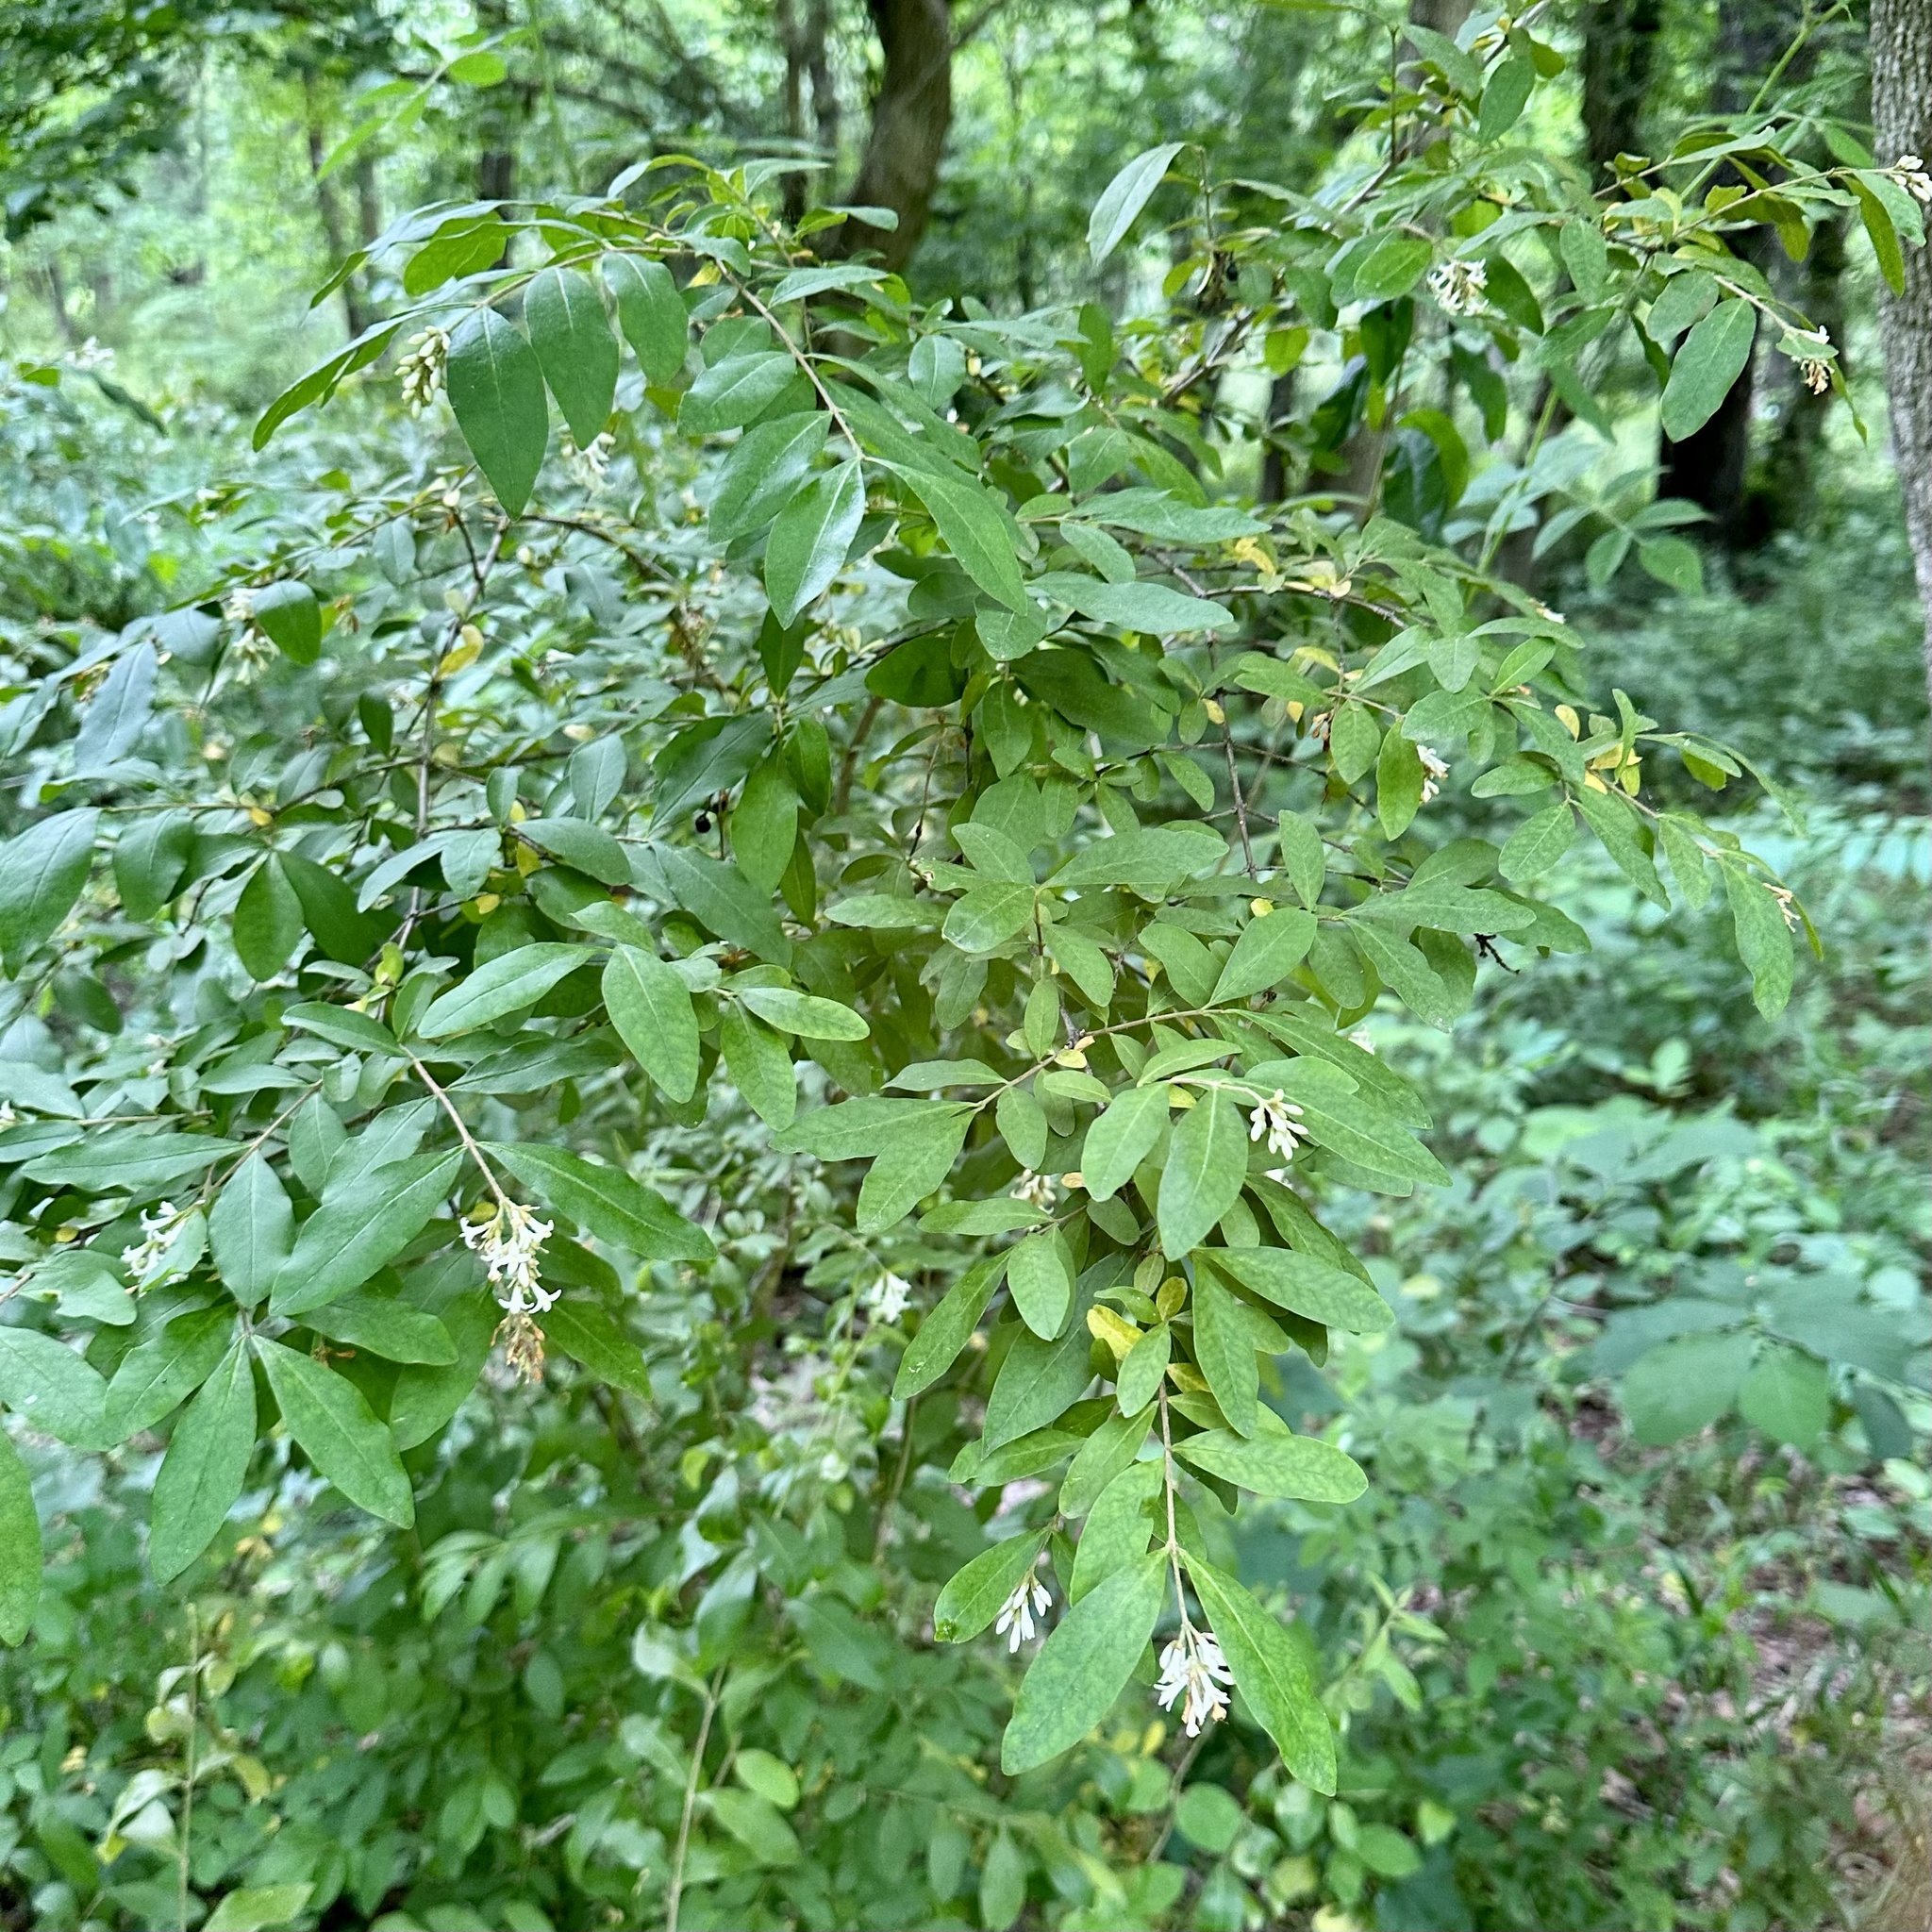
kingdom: Plantae
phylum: Tracheophyta
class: Magnoliopsida
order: Lamiales
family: Oleaceae
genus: Ligustrum
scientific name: Ligustrum obtusifolium
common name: Border privet
